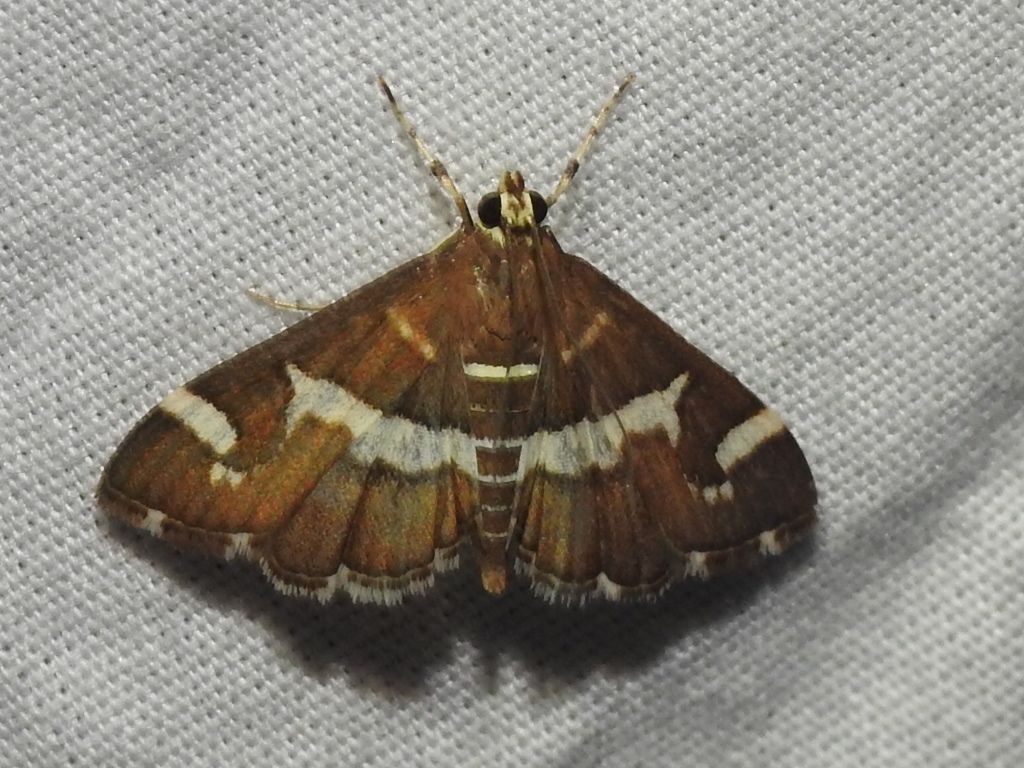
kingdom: Animalia
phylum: Arthropoda
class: Insecta
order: Lepidoptera
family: Crambidae
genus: Spoladea
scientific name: Spoladea recurvalis
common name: Beet webworm moth
